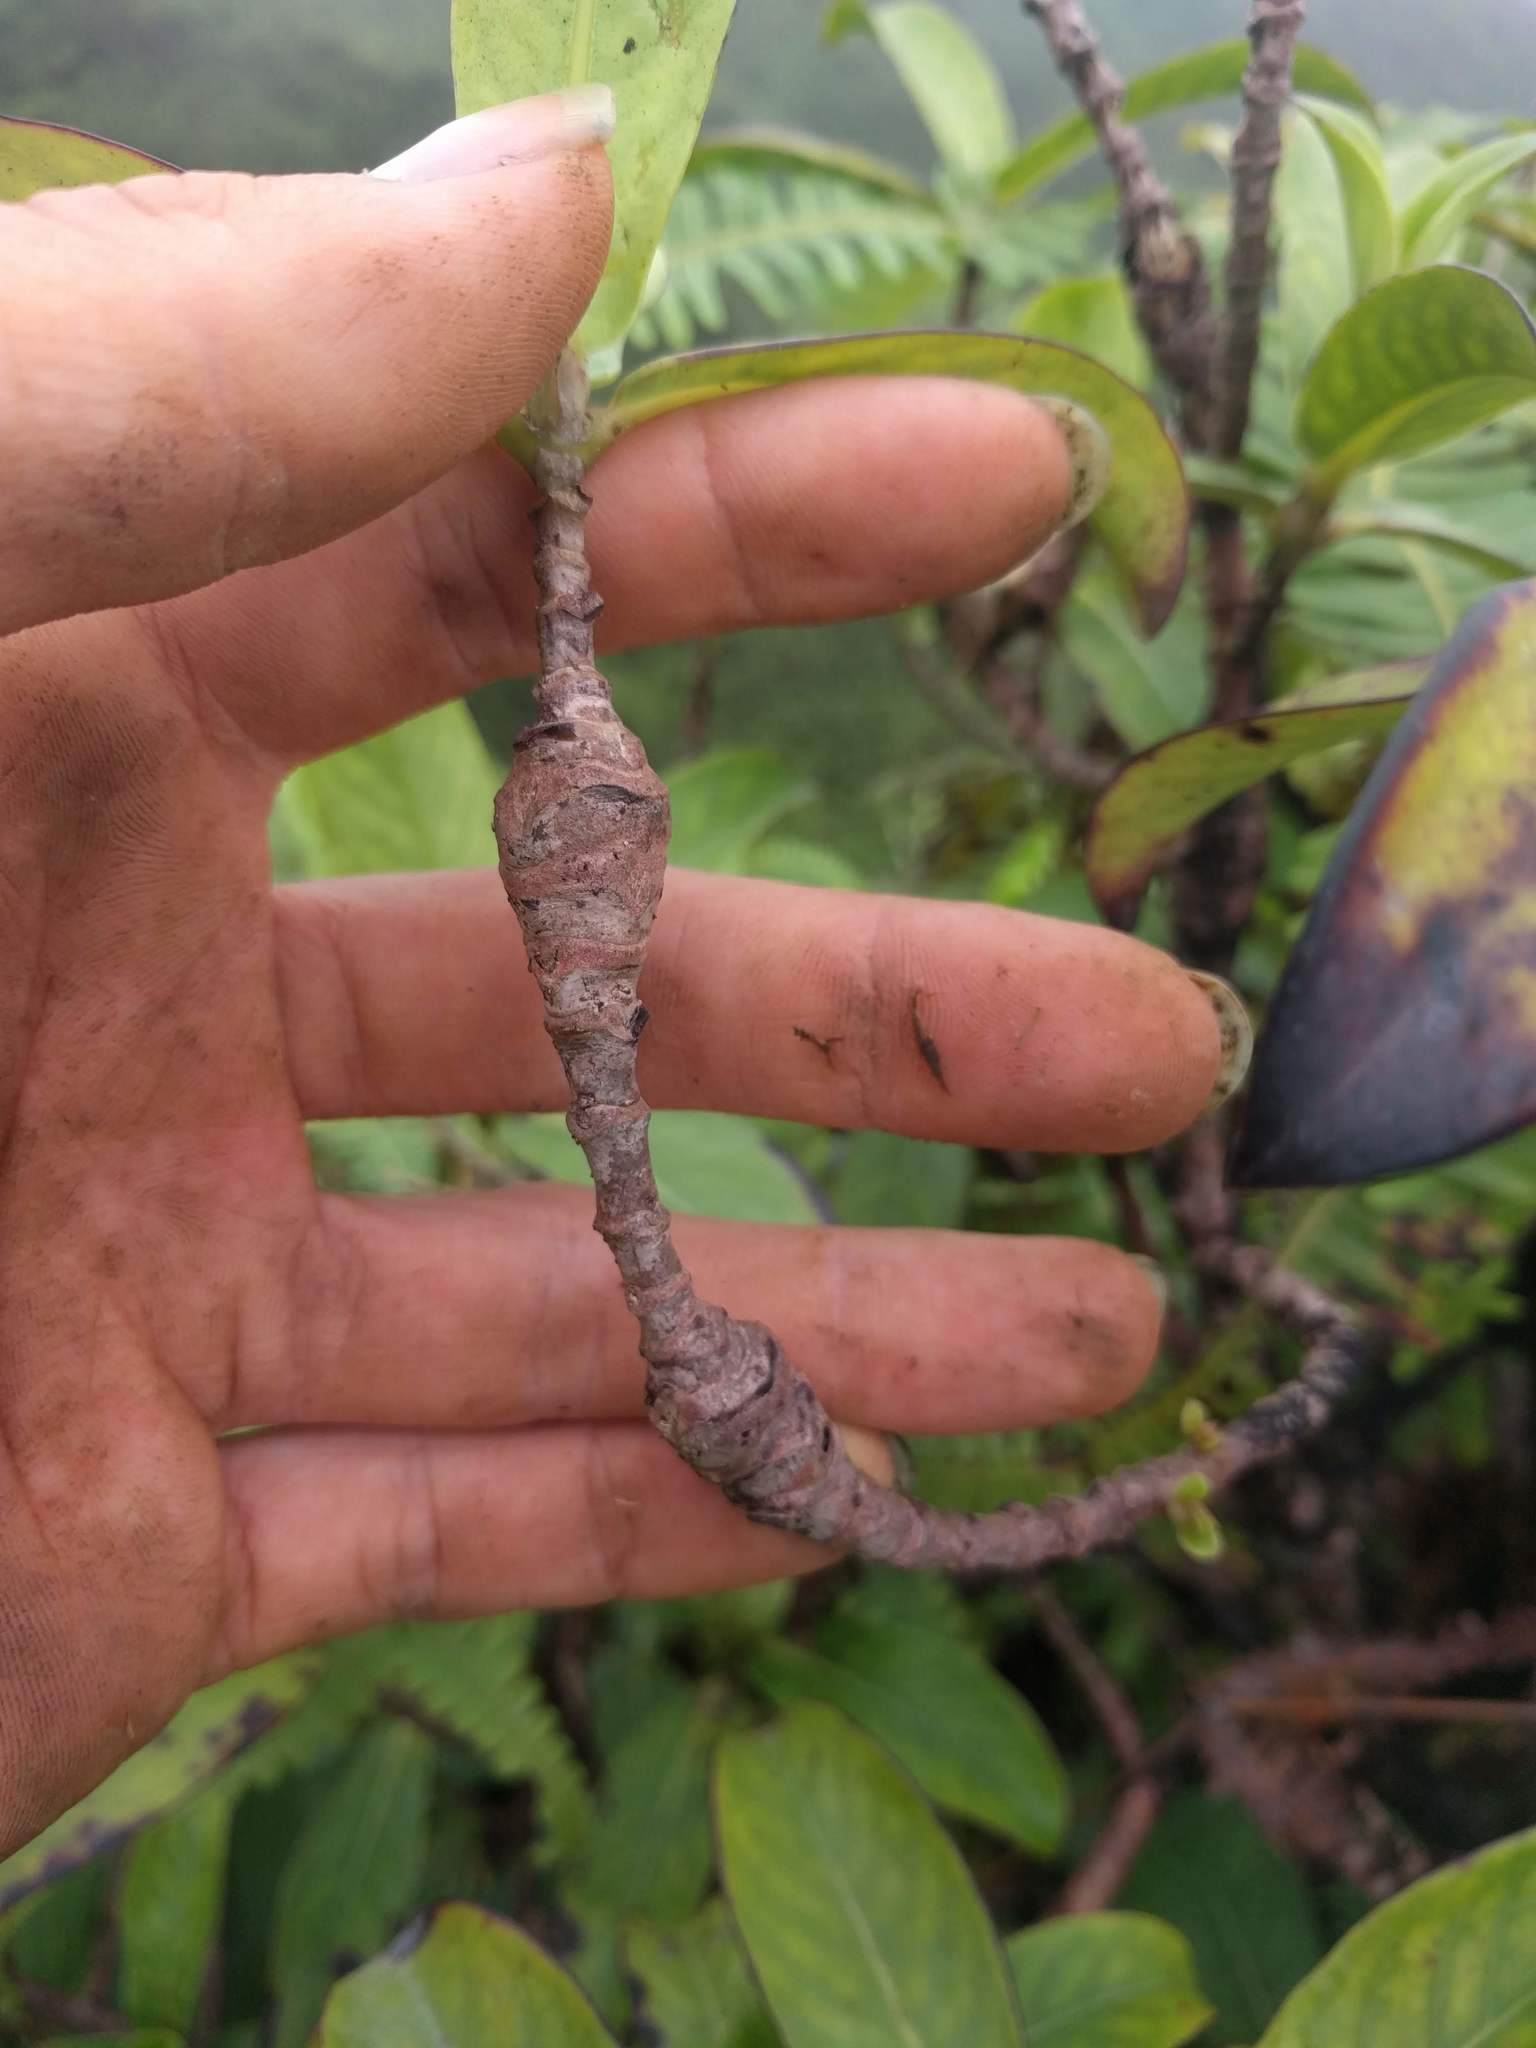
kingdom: Animalia
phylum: Arthropoda
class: Insecta
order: Lepidoptera
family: Gelechiidae
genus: Merimnetria
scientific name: Merimnetria homoxyla
